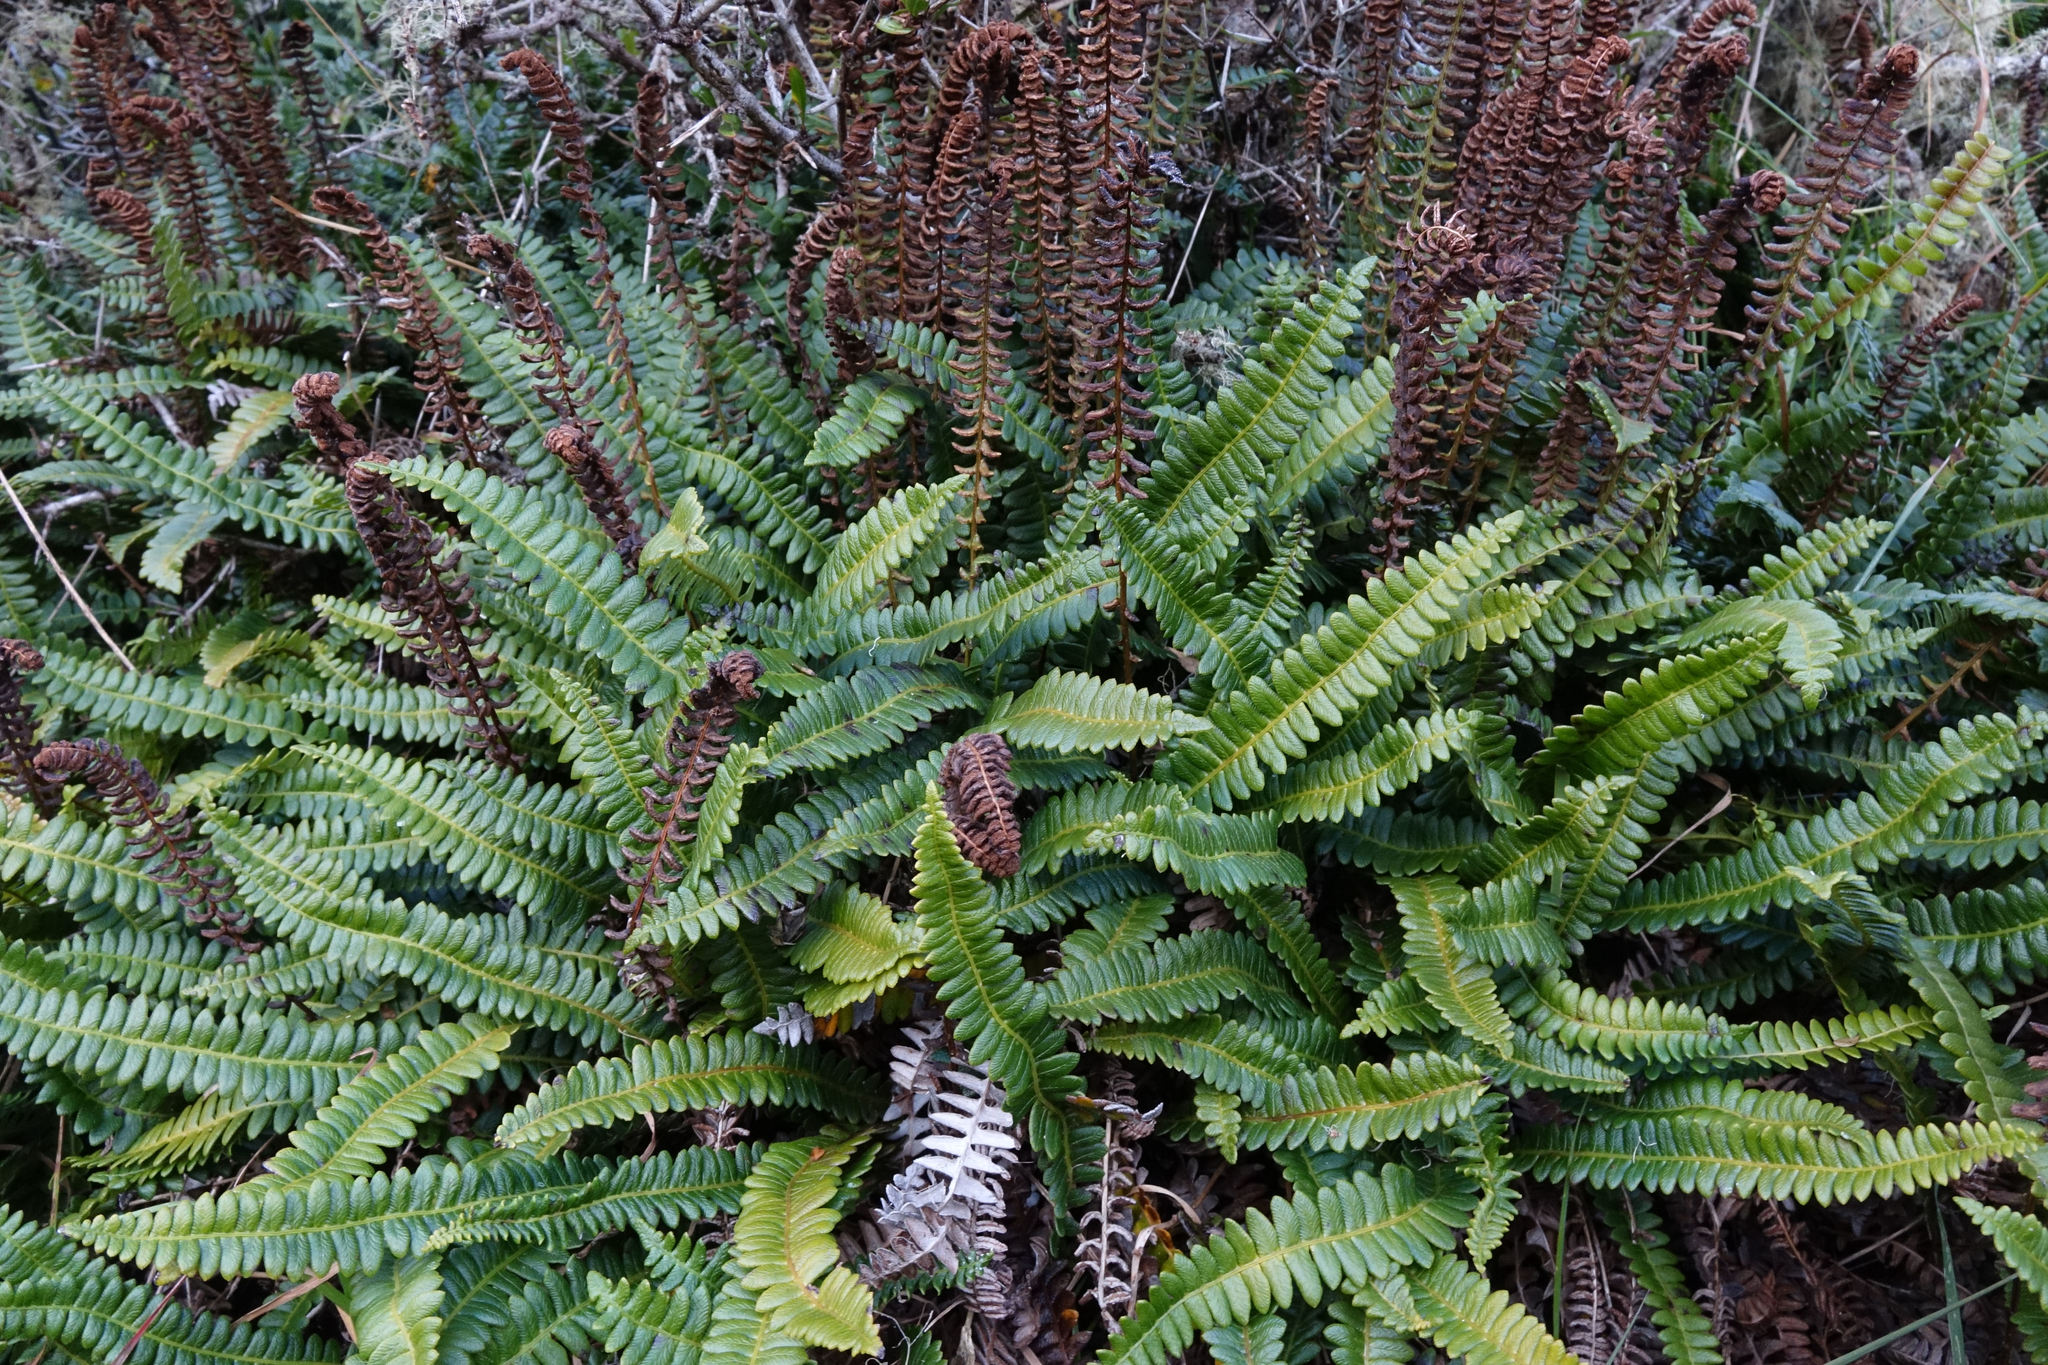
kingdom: Plantae
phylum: Tracheophyta
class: Polypodiopsida
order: Polypodiales
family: Blechnaceae
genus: Austroblechnum
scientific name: Austroblechnum penna-marina
